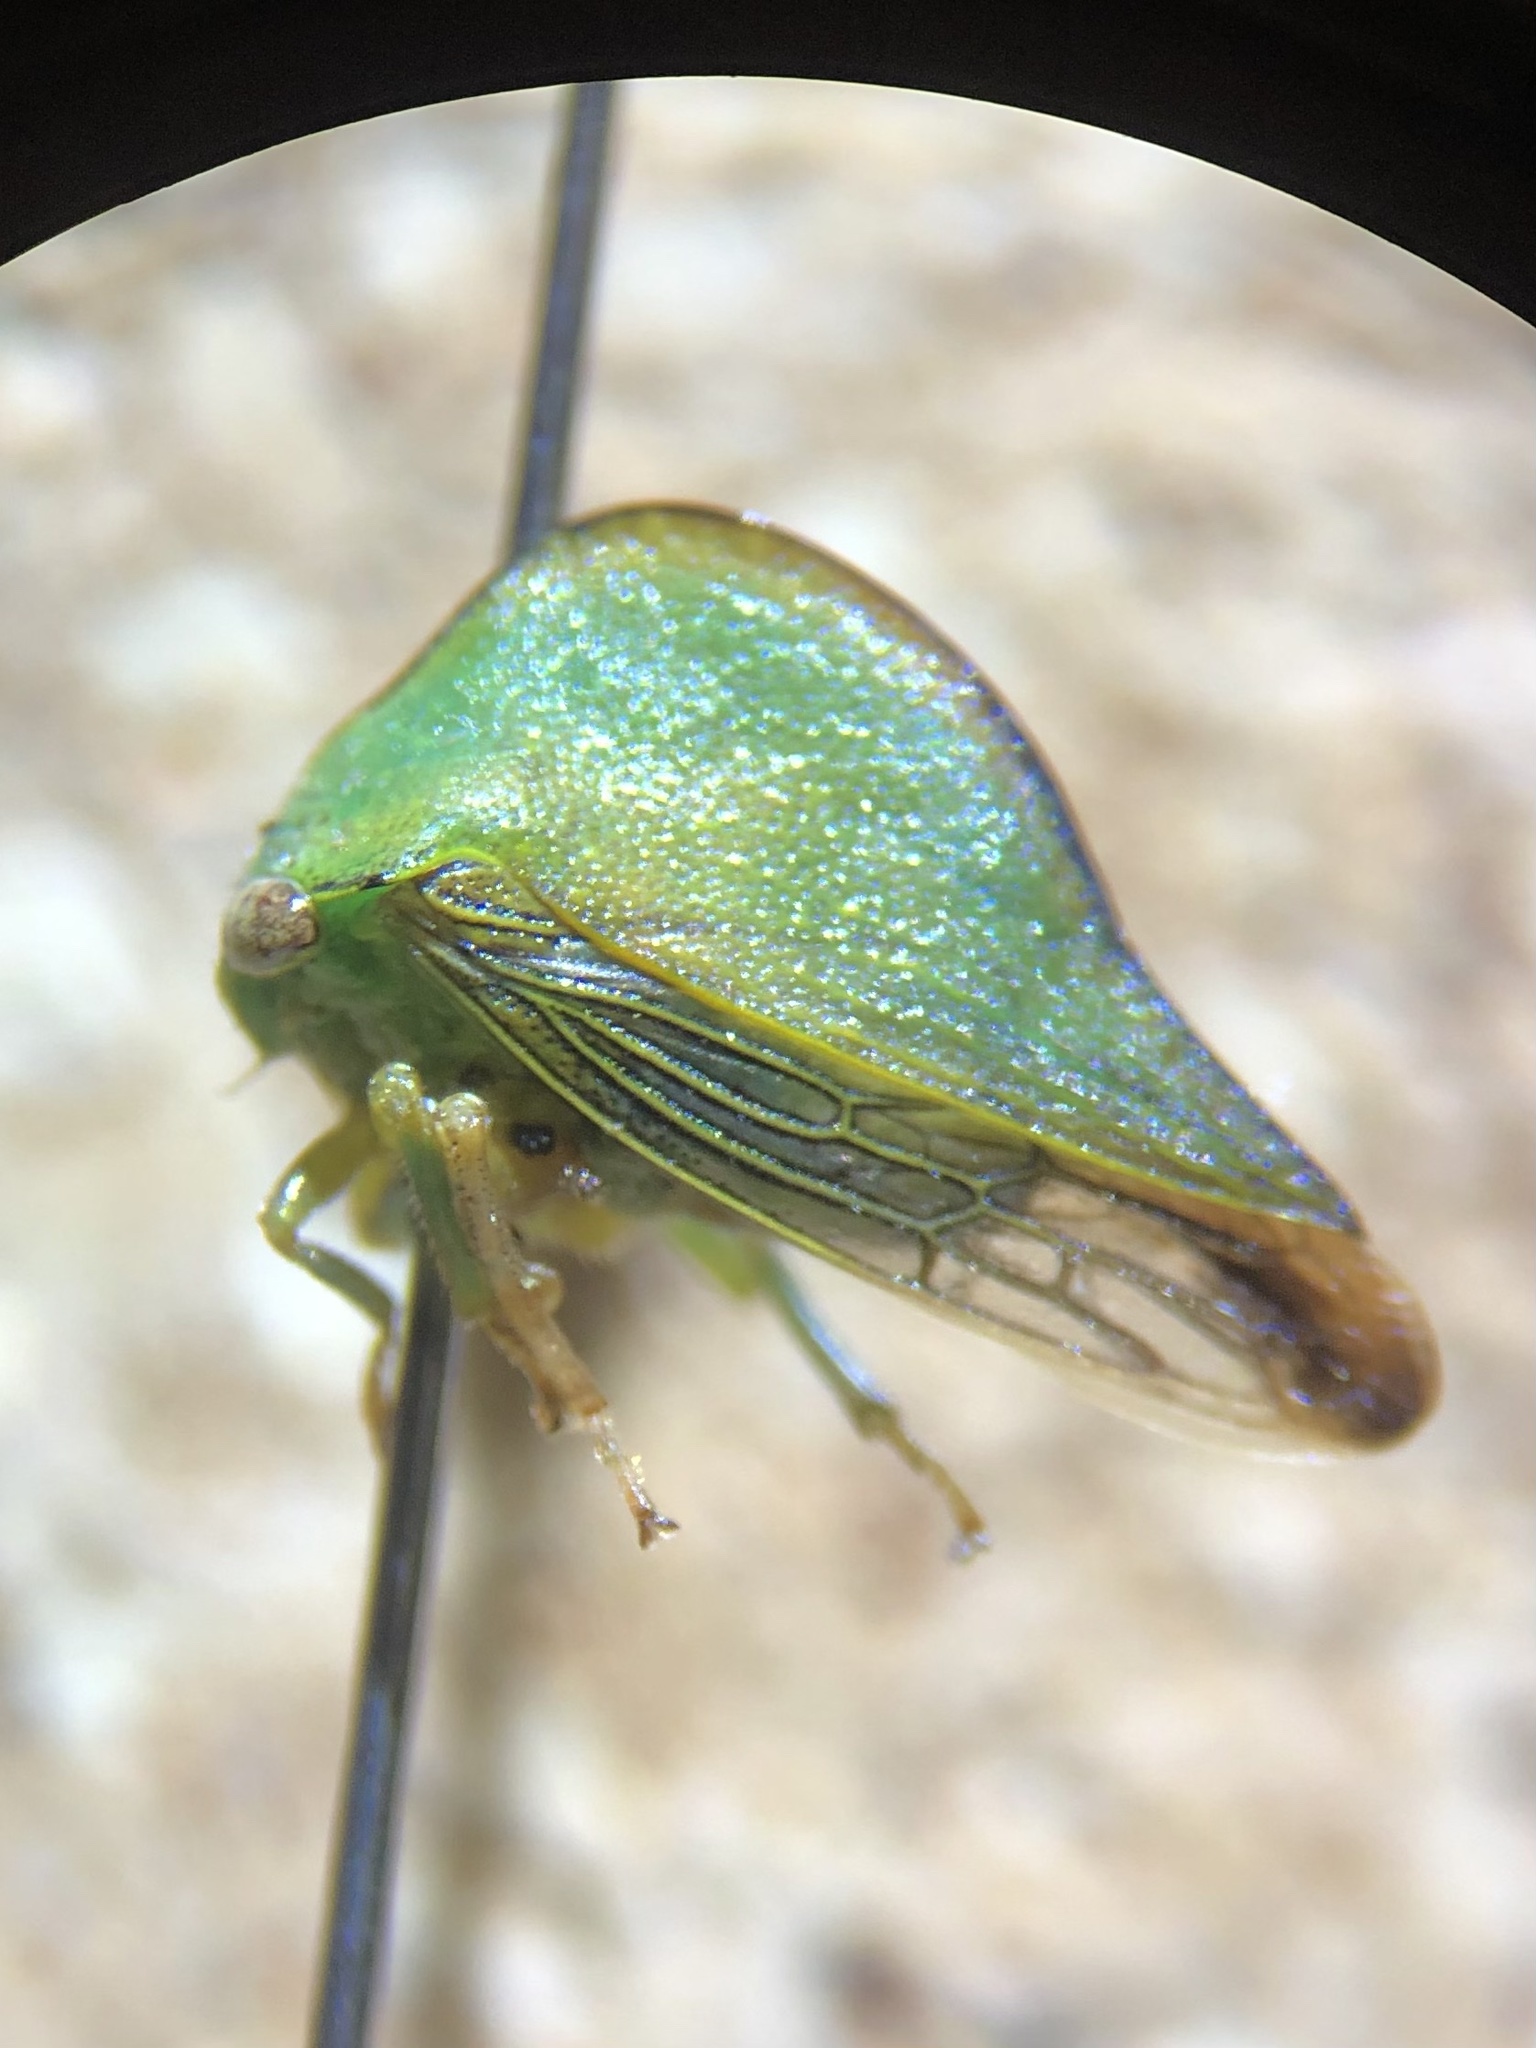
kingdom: Animalia
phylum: Arthropoda
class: Insecta
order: Hemiptera
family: Membracidae
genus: Archasia
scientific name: Archasia pallida
